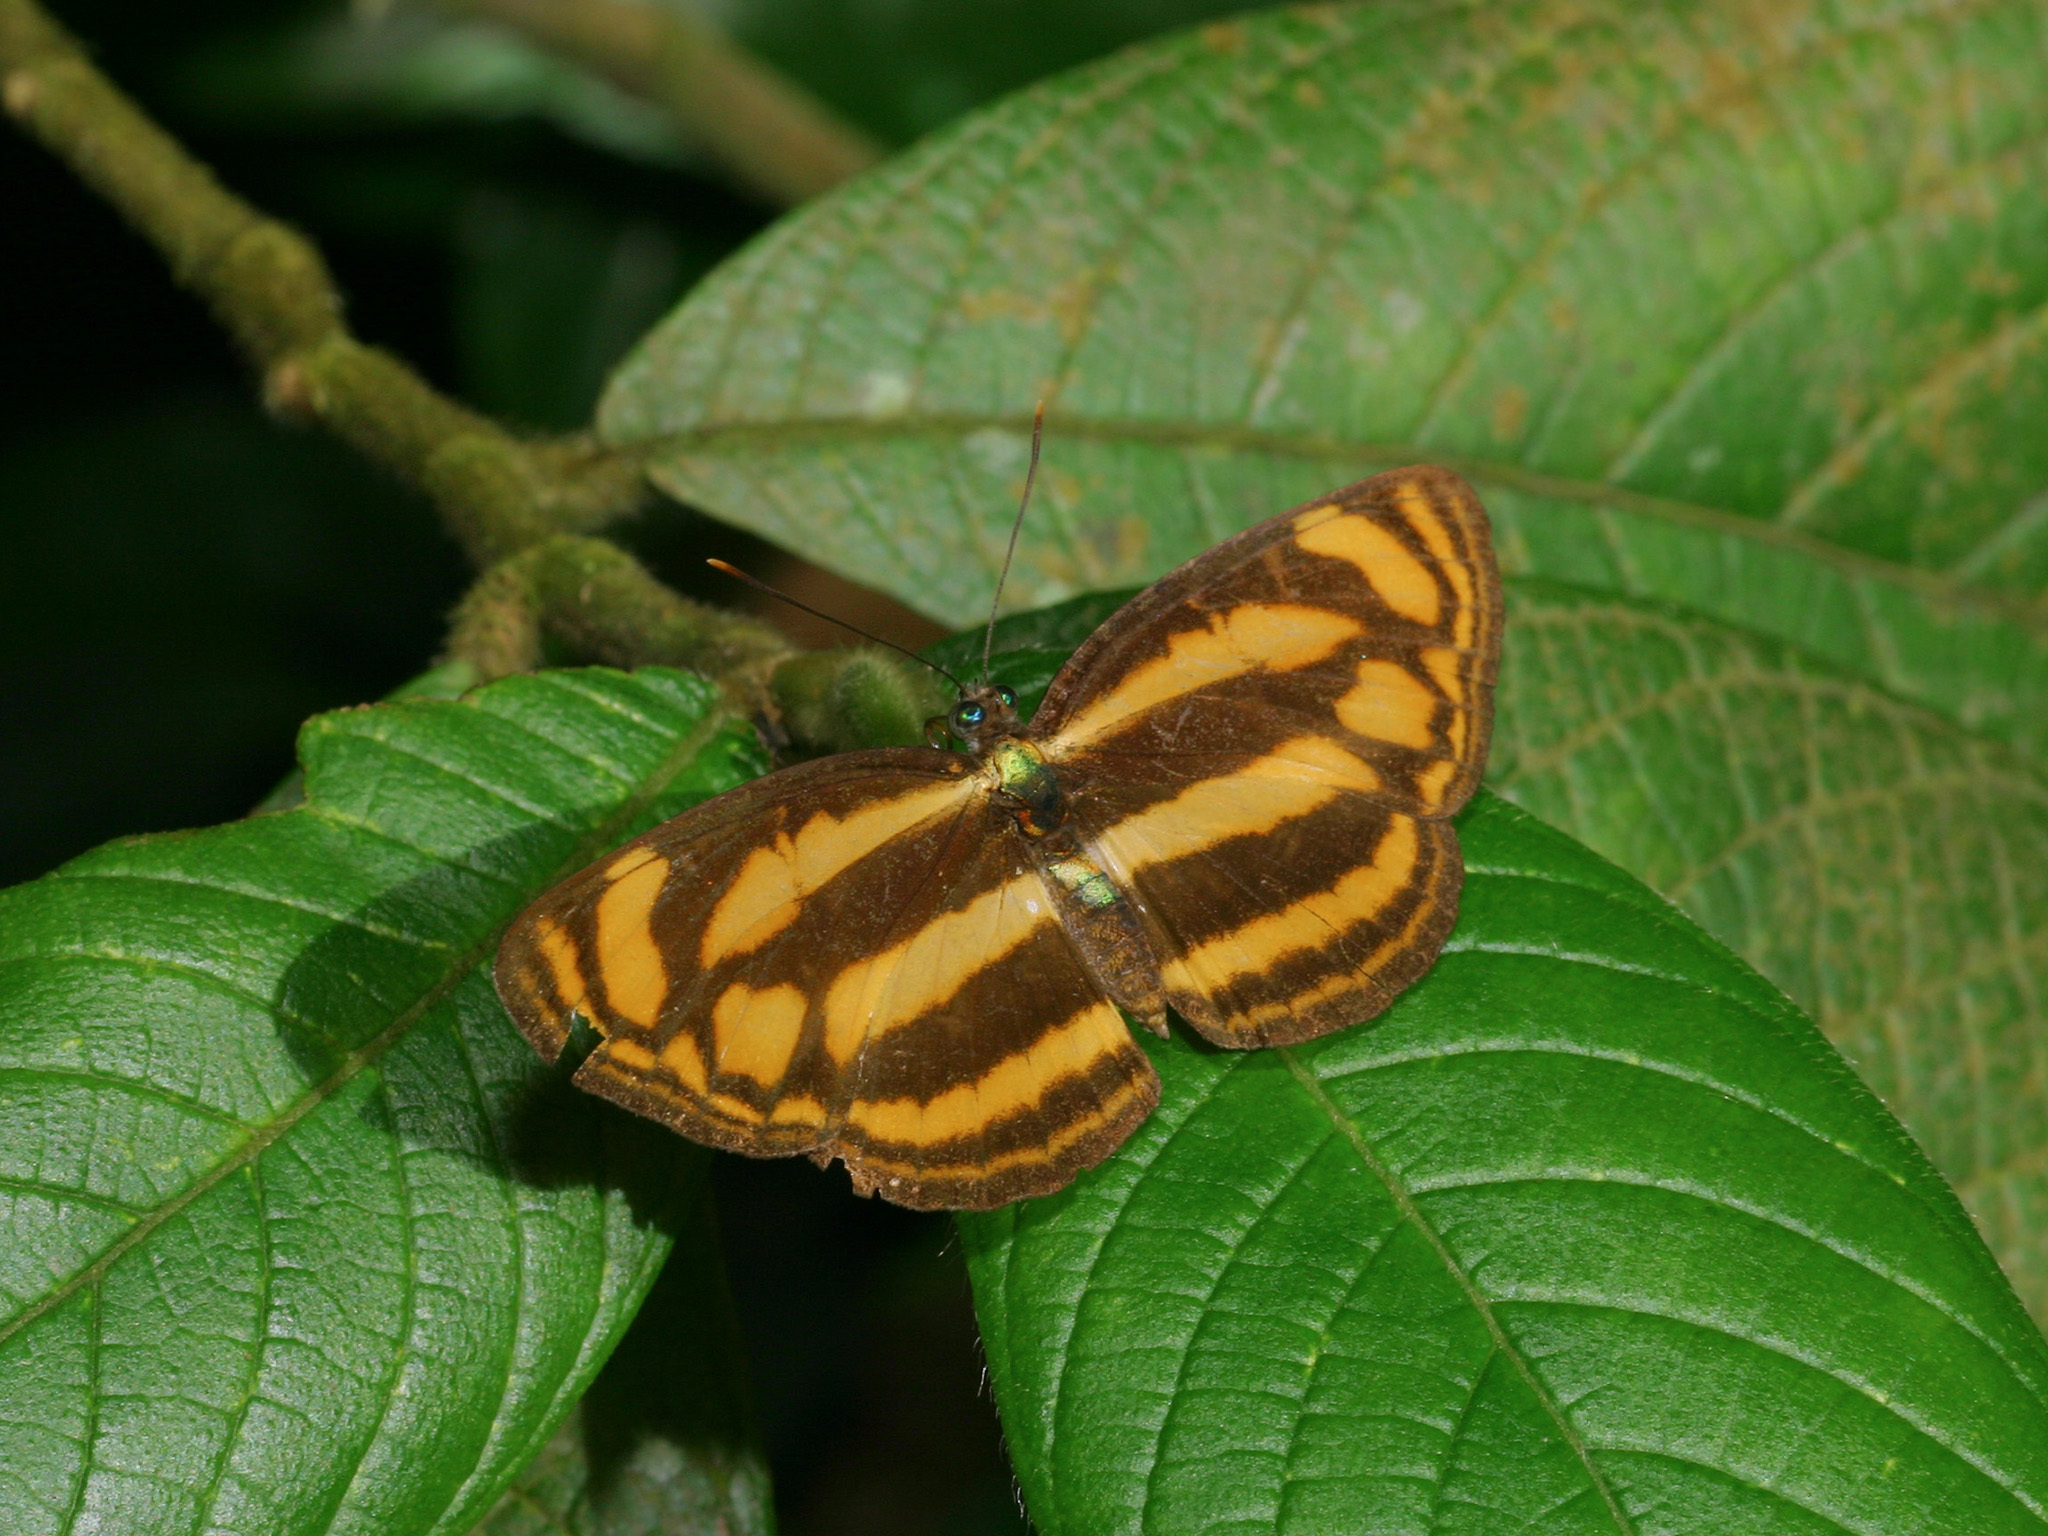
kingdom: Animalia
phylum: Arthropoda
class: Insecta
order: Lepidoptera
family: Nymphalidae
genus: Lasippa
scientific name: Lasippa tiga
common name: Malayan lascar
